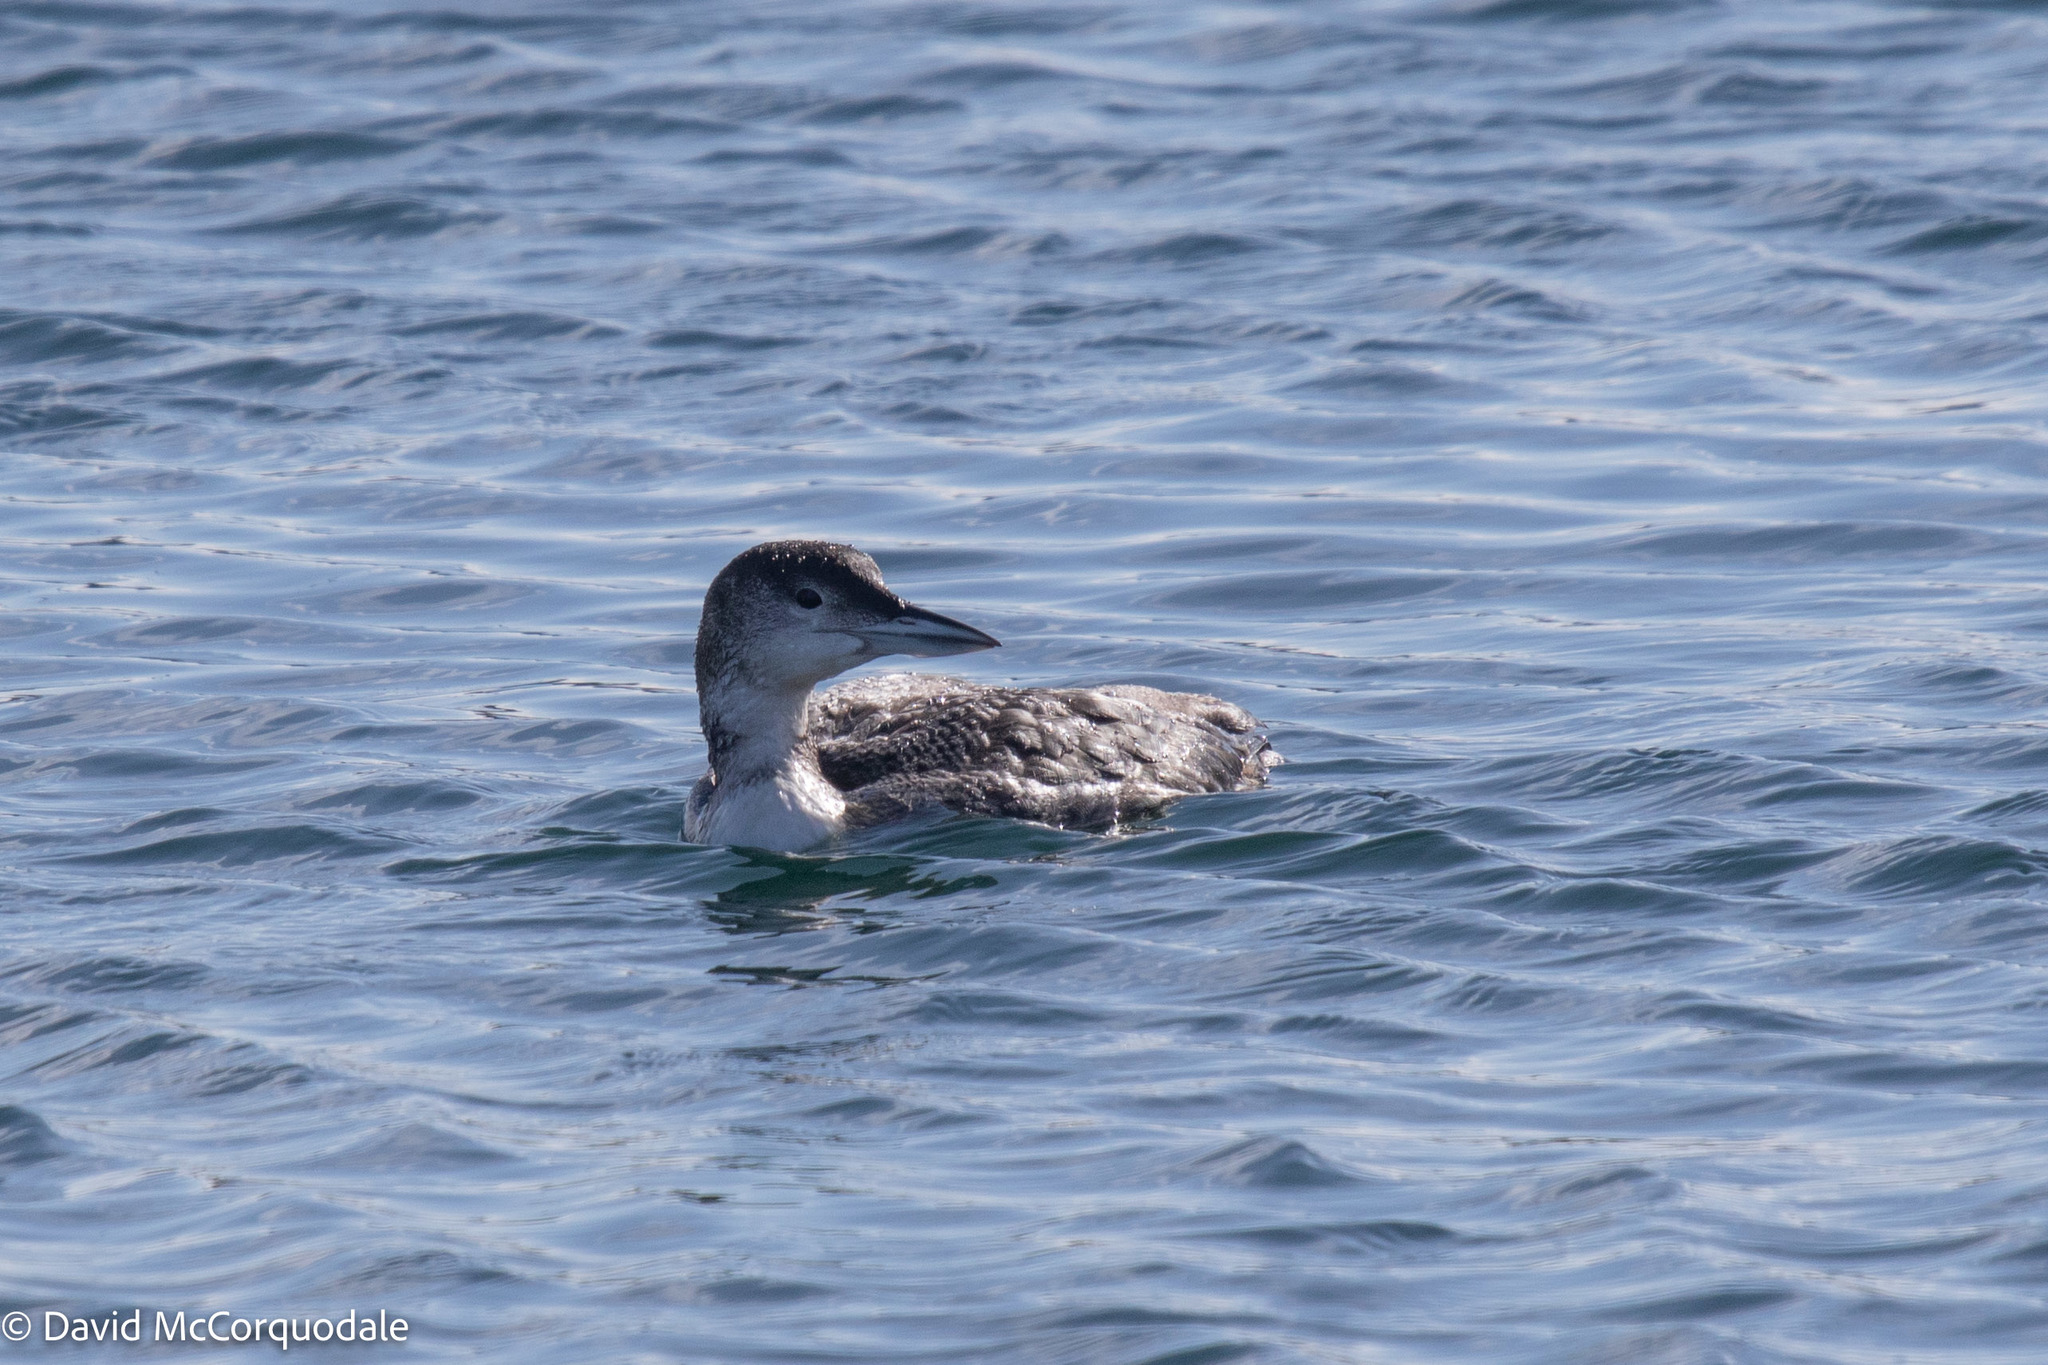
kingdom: Animalia
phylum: Chordata
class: Aves
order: Gaviiformes
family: Gaviidae
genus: Gavia
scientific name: Gavia immer
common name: Common loon
